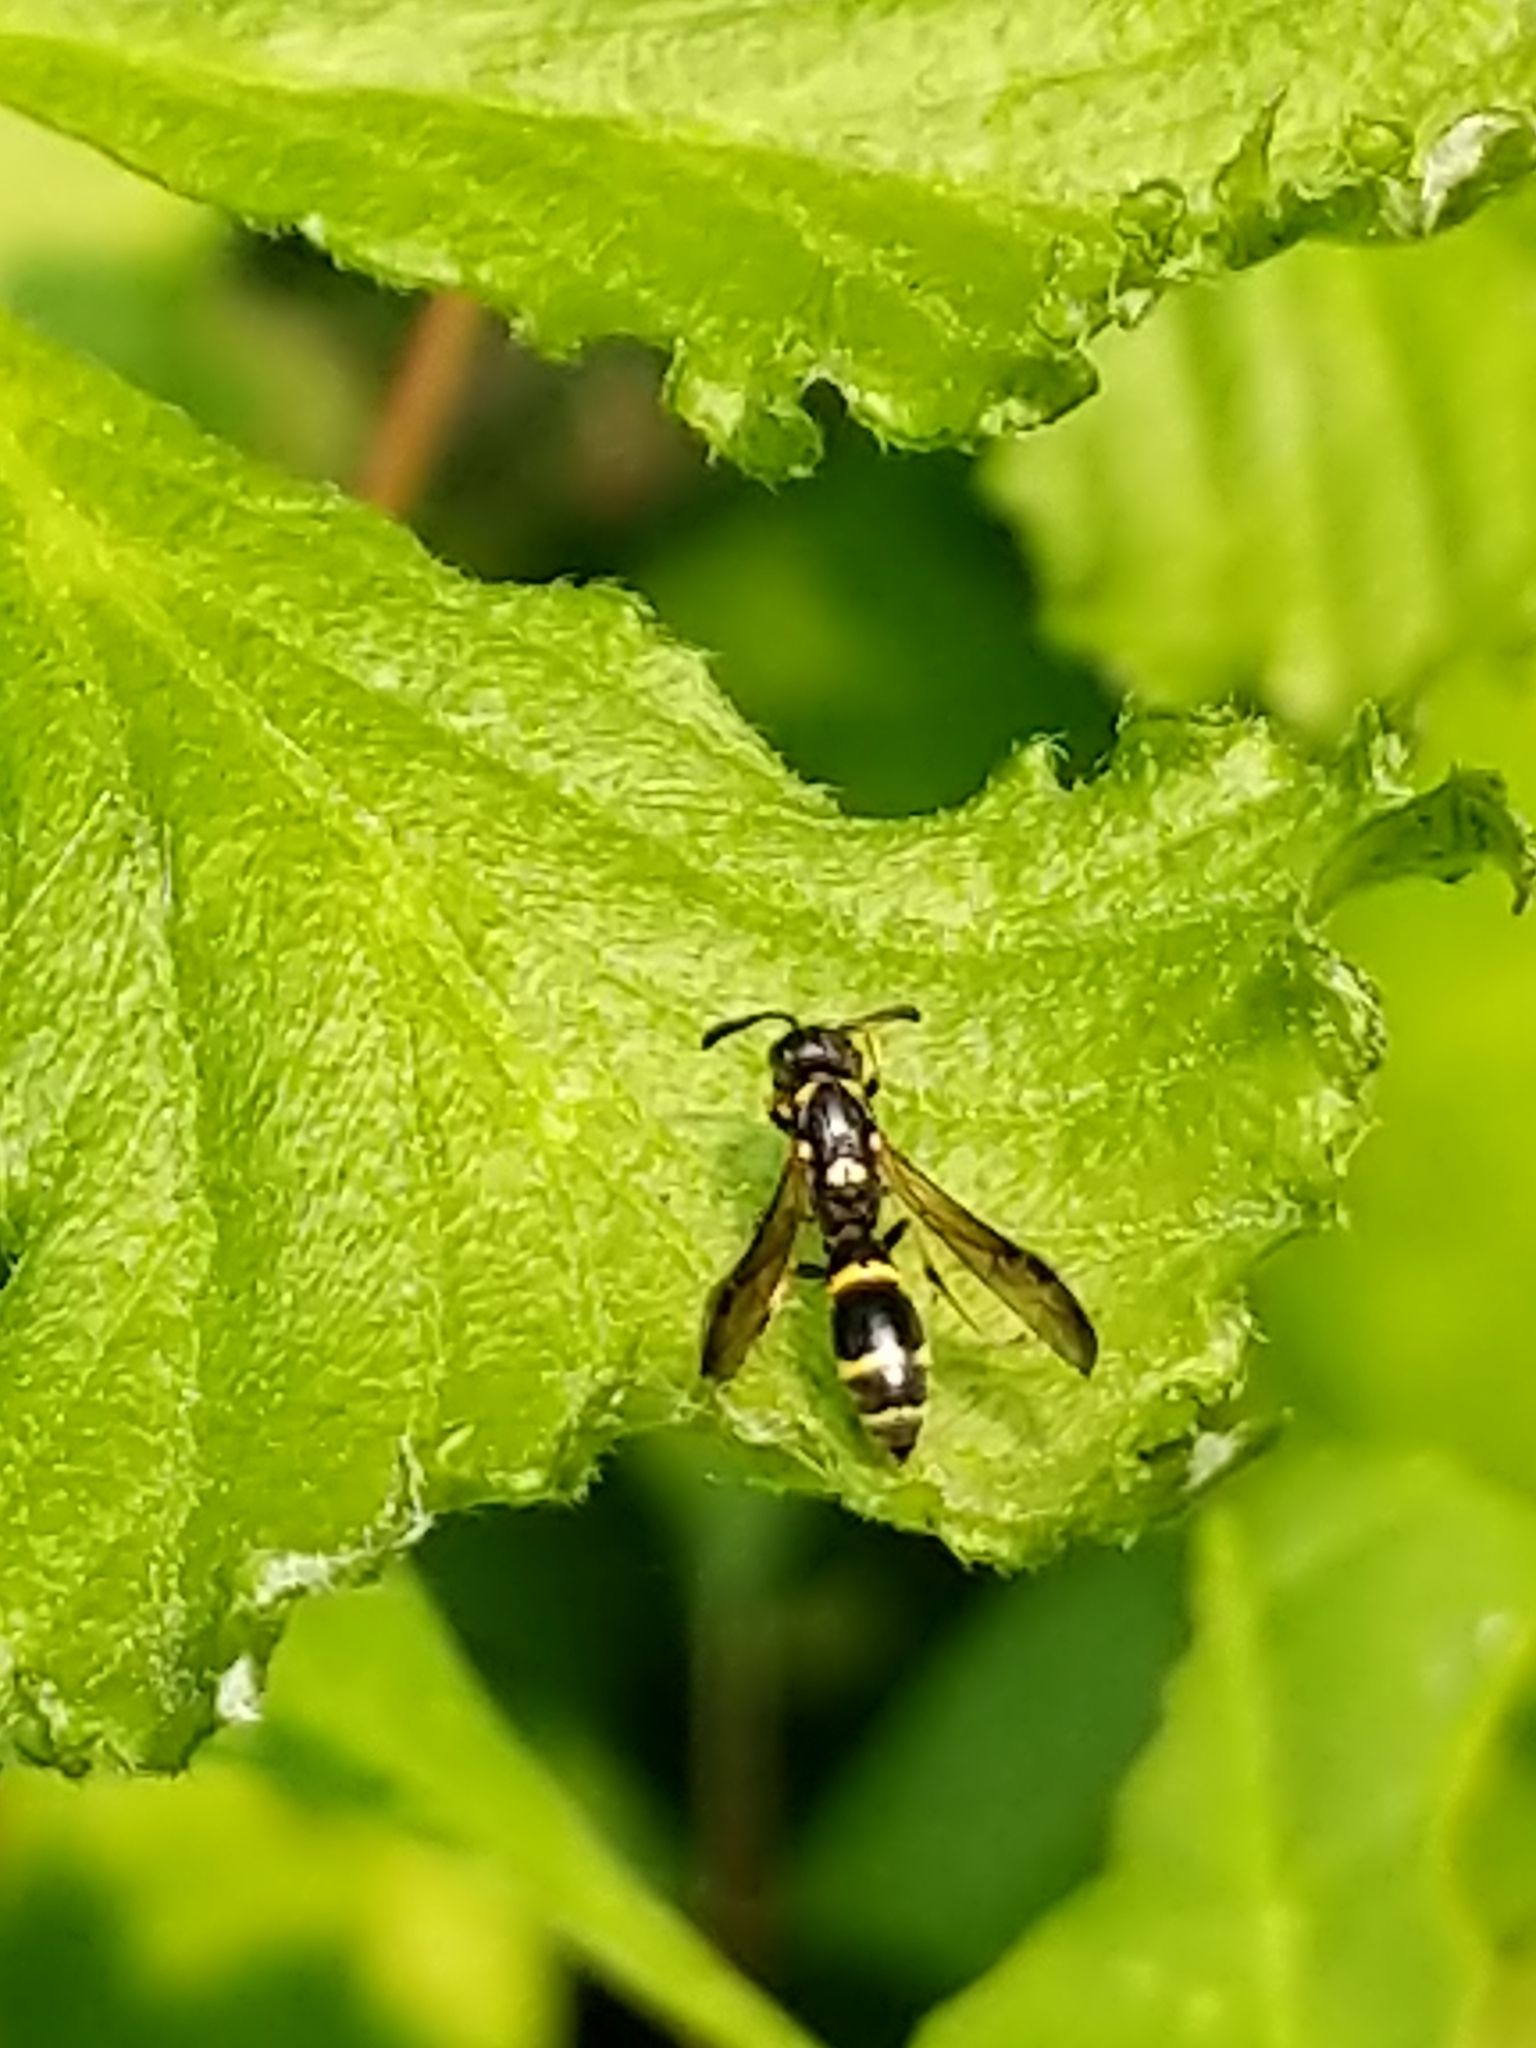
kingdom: Animalia
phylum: Arthropoda
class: Insecta
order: Hymenoptera
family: Eumenidae
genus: Symmorphus
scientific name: Symmorphus
